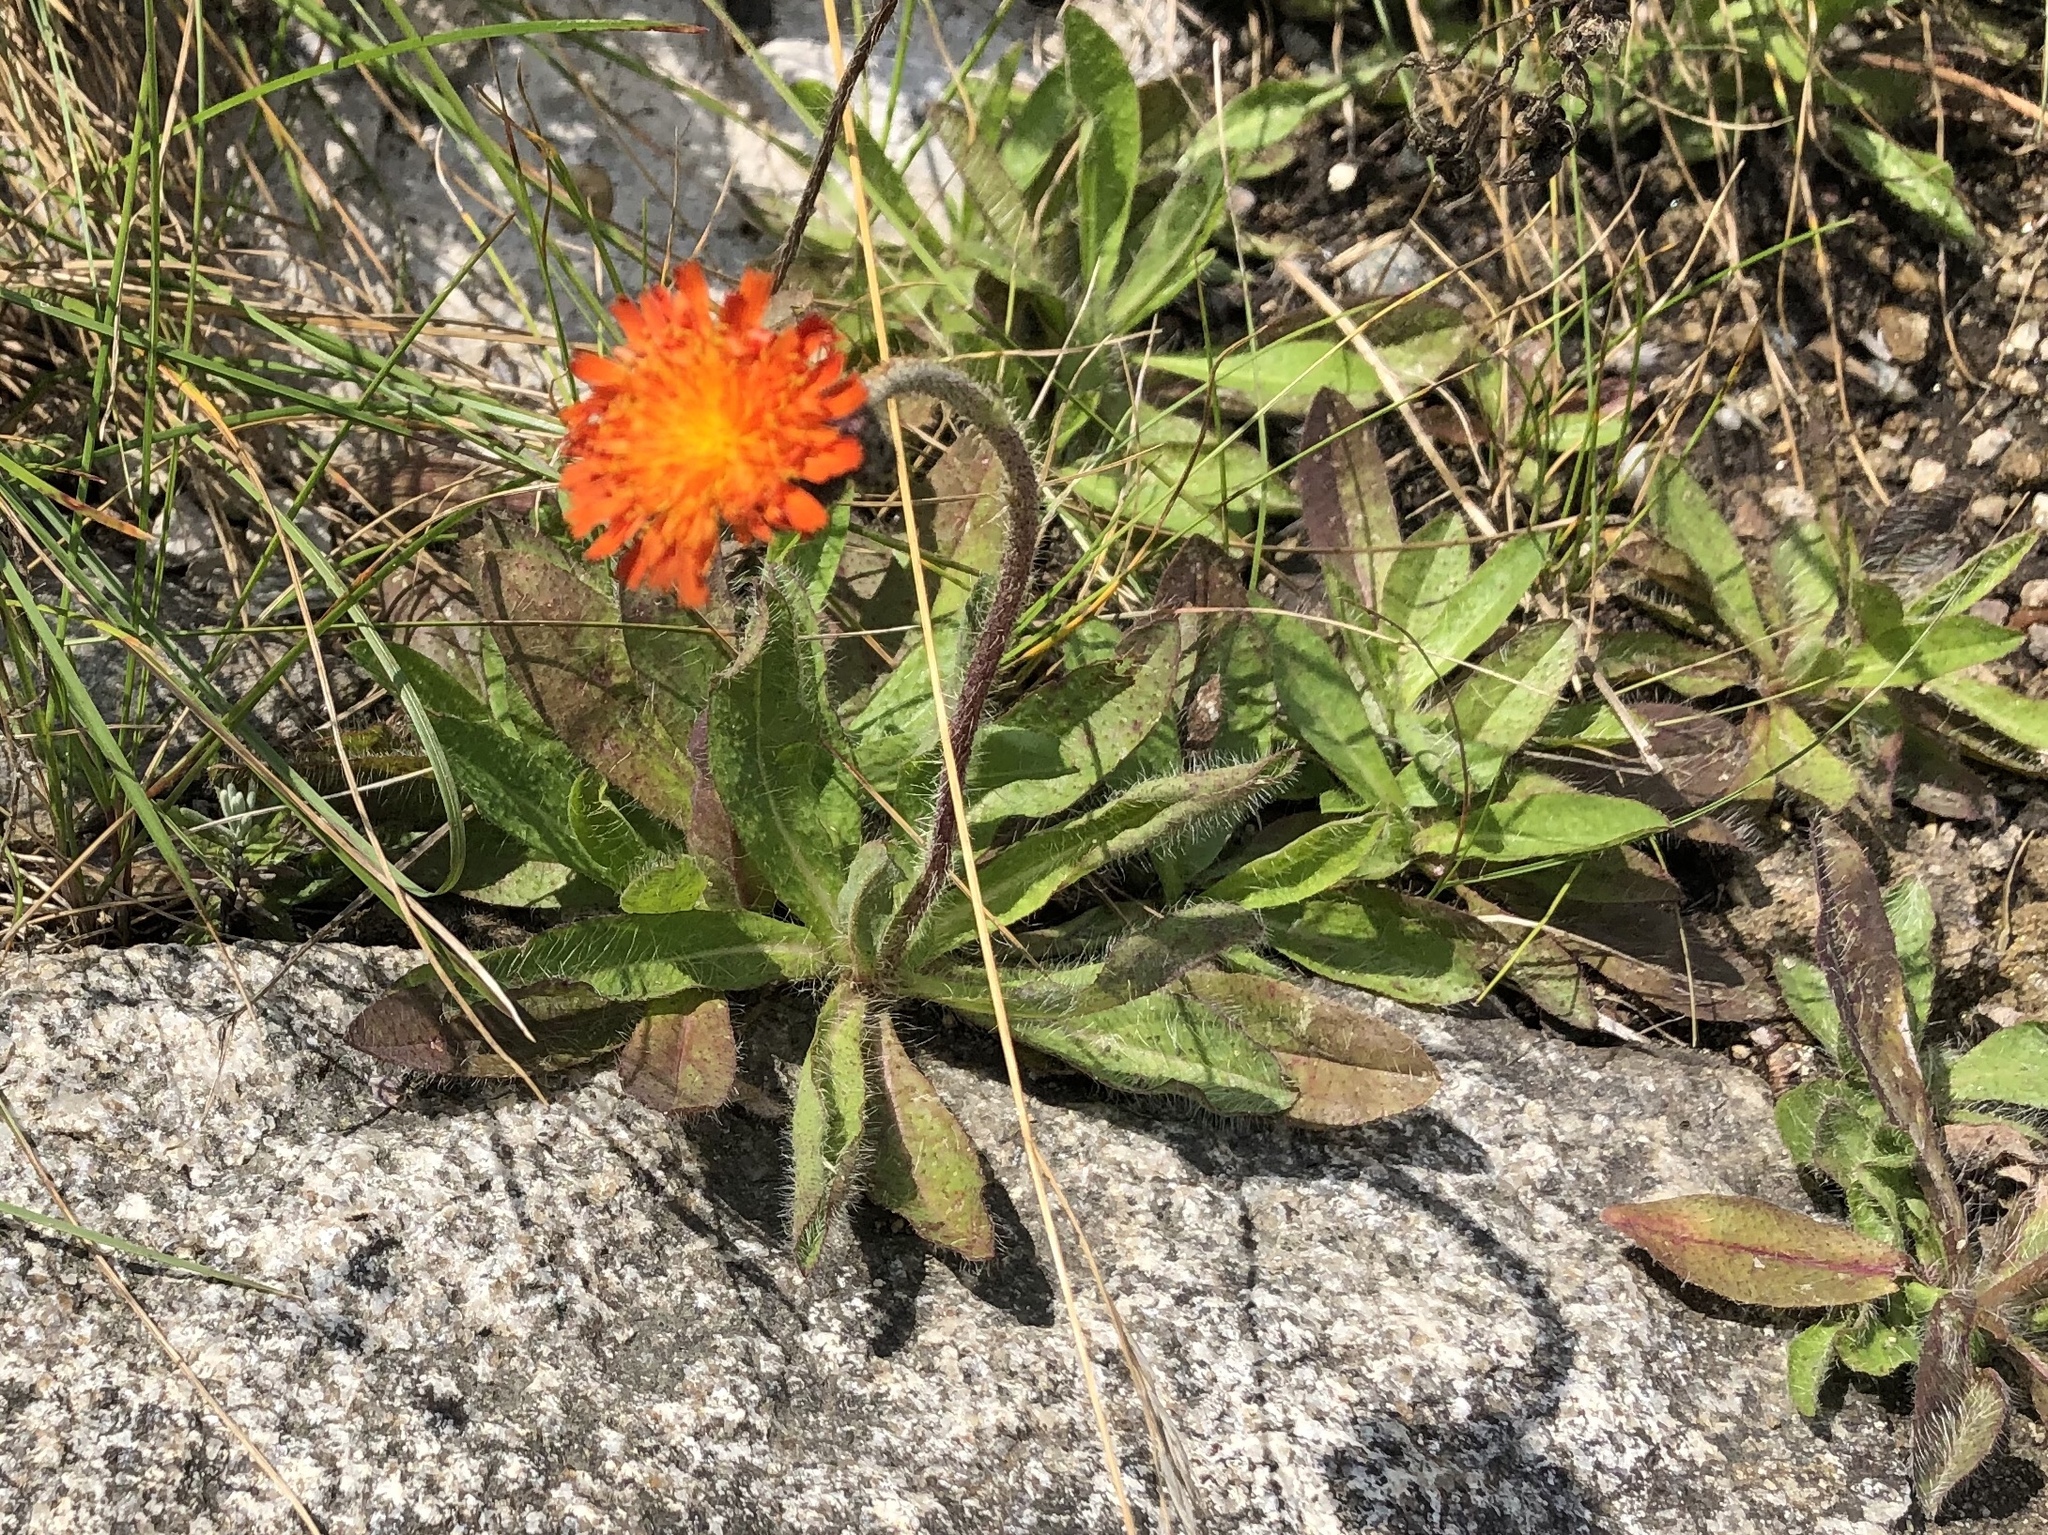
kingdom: Plantae
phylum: Tracheophyta
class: Magnoliopsida
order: Asterales
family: Asteraceae
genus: Pilosella
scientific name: Pilosella aurantiaca
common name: Fox-and-cubs
